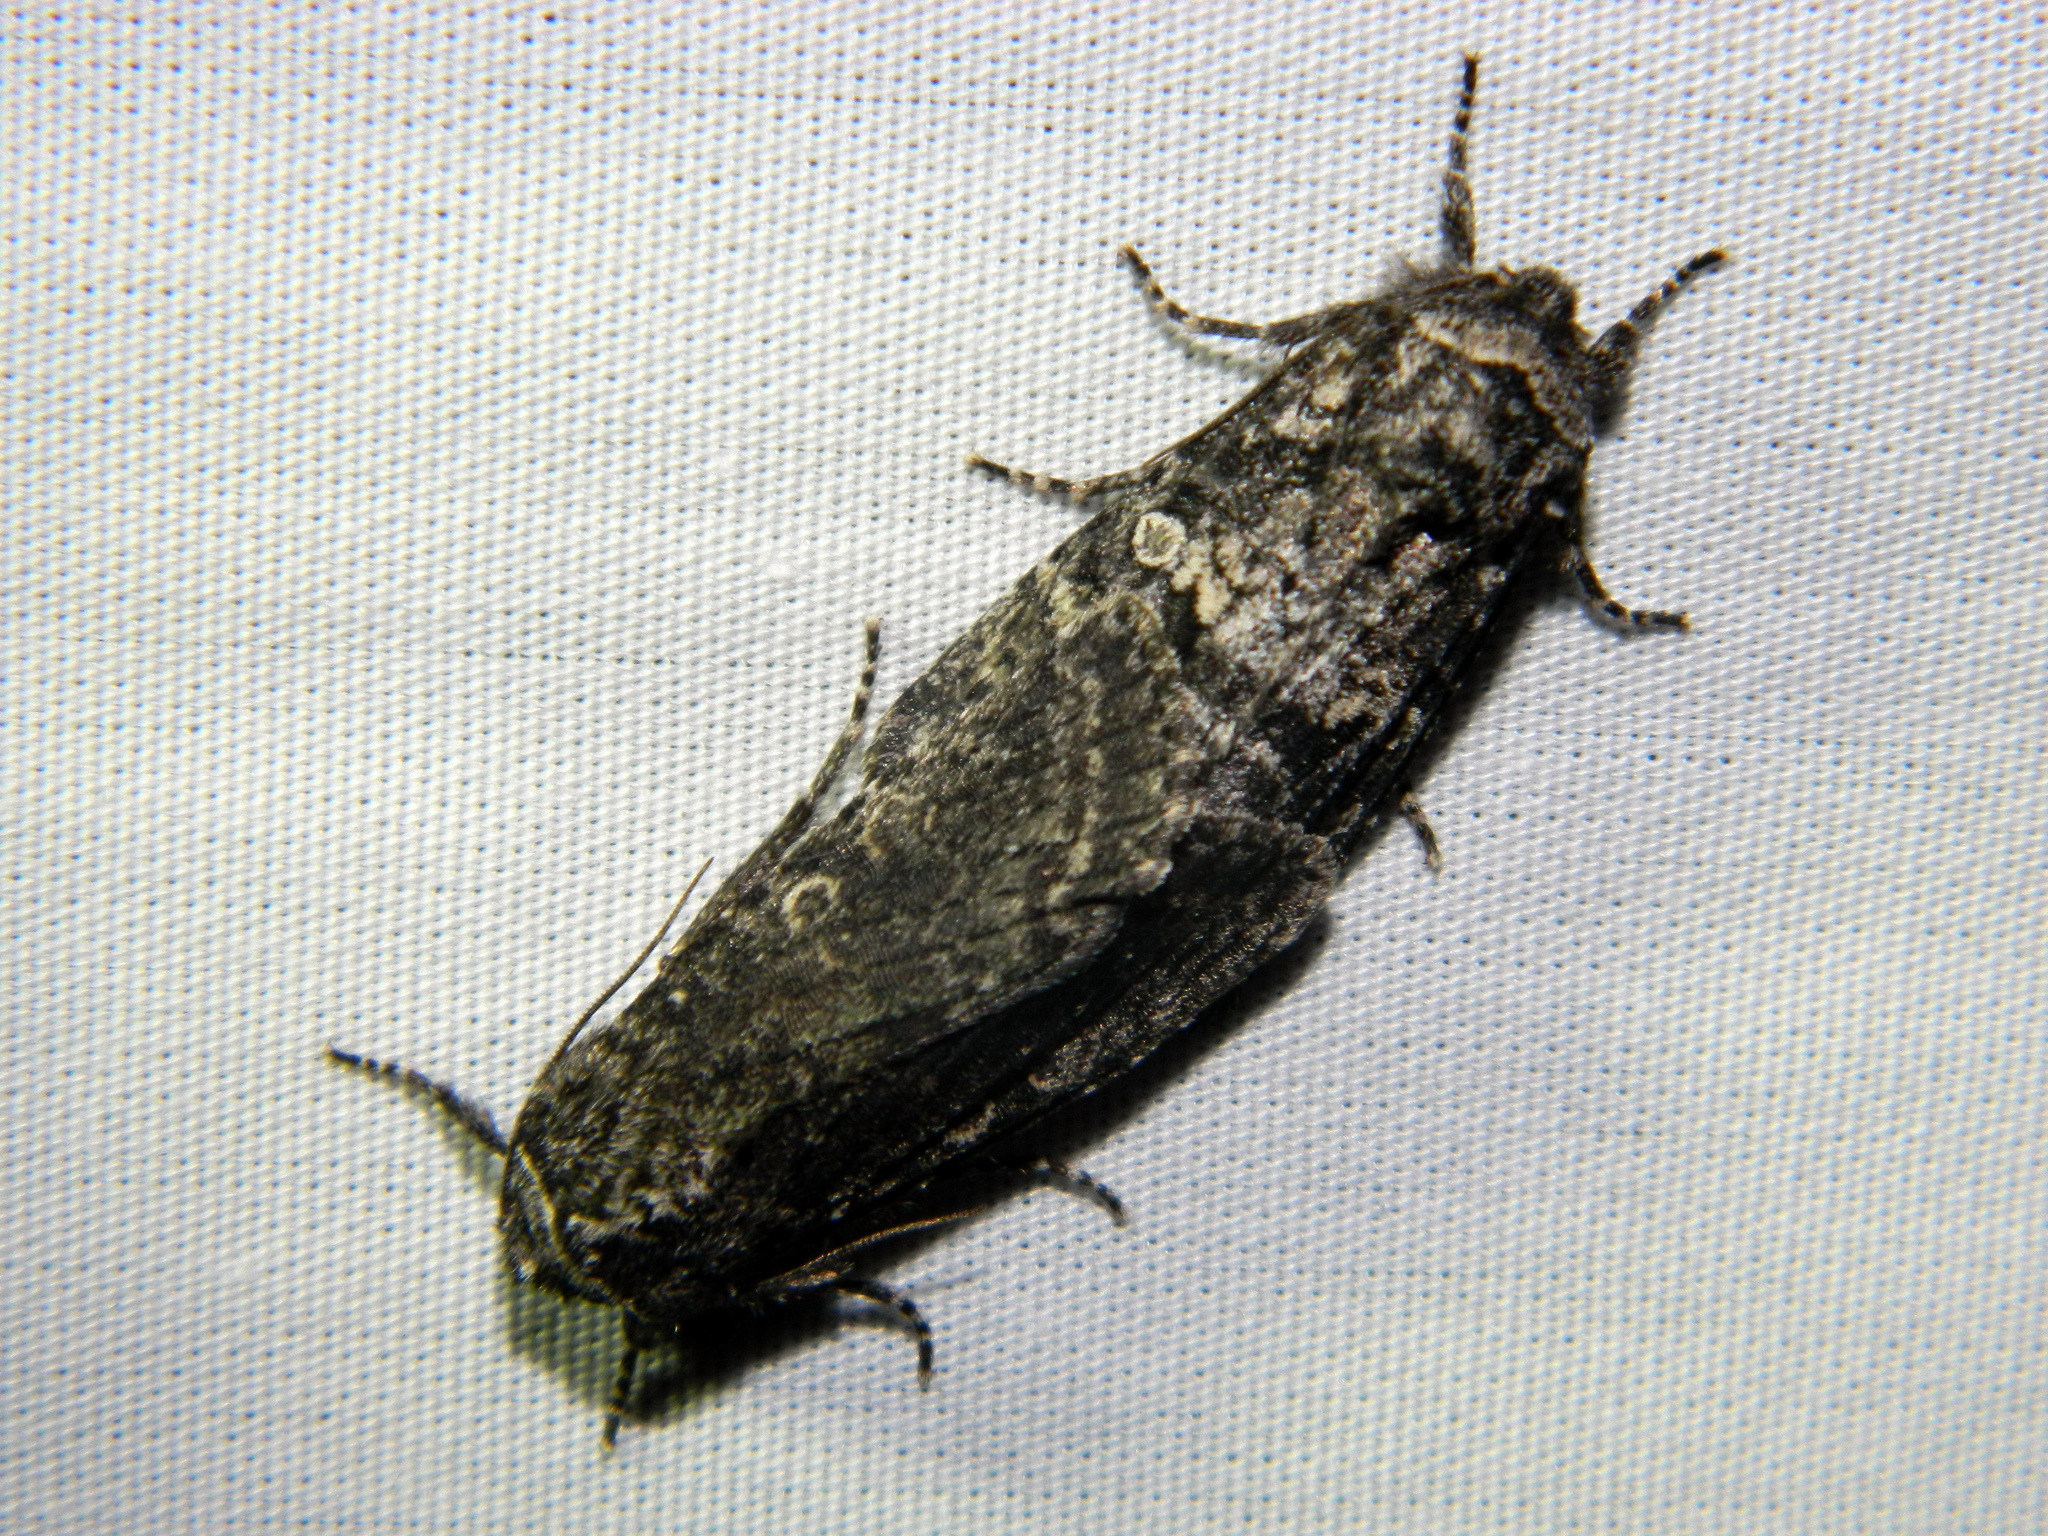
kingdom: Animalia
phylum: Arthropoda
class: Insecta
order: Lepidoptera
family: Noctuidae
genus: Egira
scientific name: Egira dolosa
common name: Lined black aspen cat.
